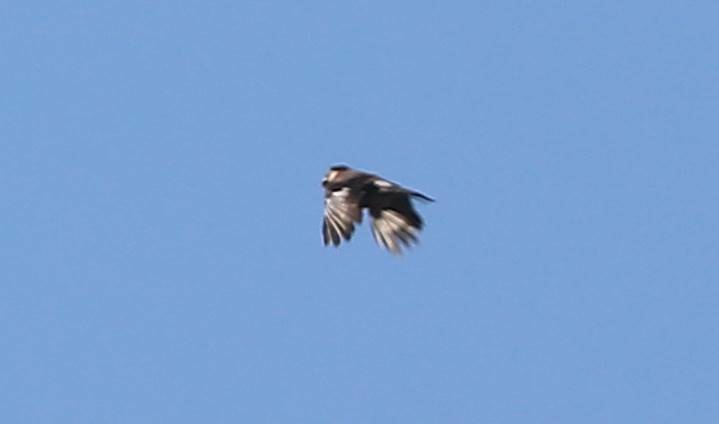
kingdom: Animalia
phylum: Chordata
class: Aves
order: Passeriformes
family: Corvidae
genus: Garrulus
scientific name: Garrulus glandarius
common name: Eurasian jay
